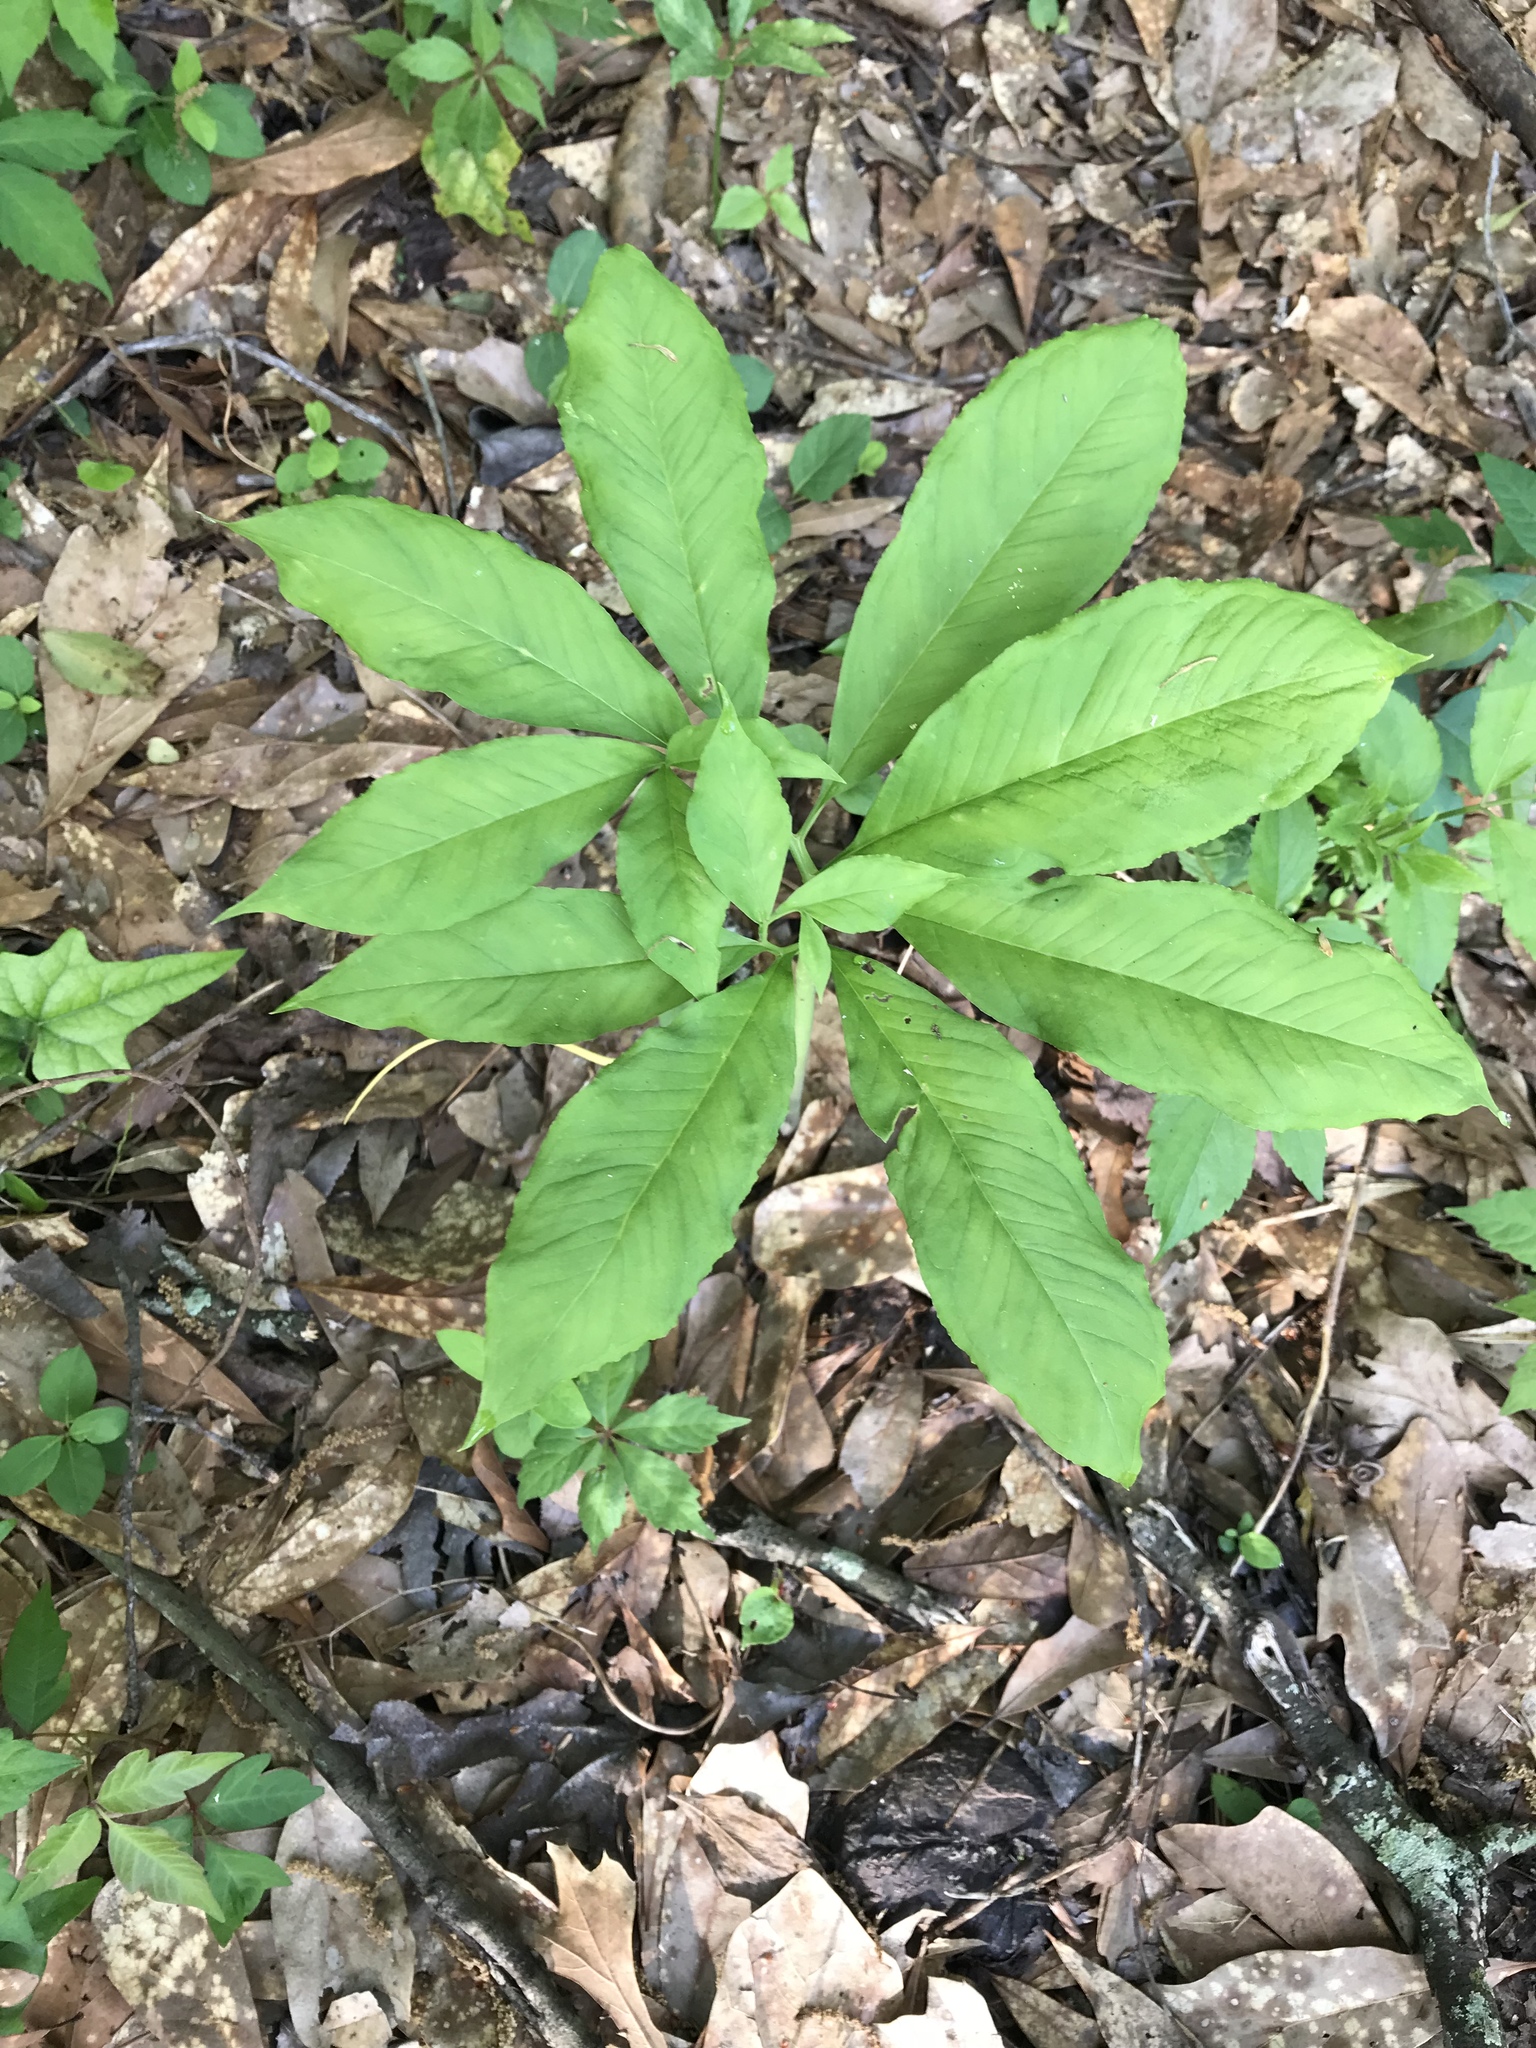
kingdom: Plantae
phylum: Tracheophyta
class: Liliopsida
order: Alismatales
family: Araceae
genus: Arisaema
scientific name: Arisaema dracontium
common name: Dragon-arum
